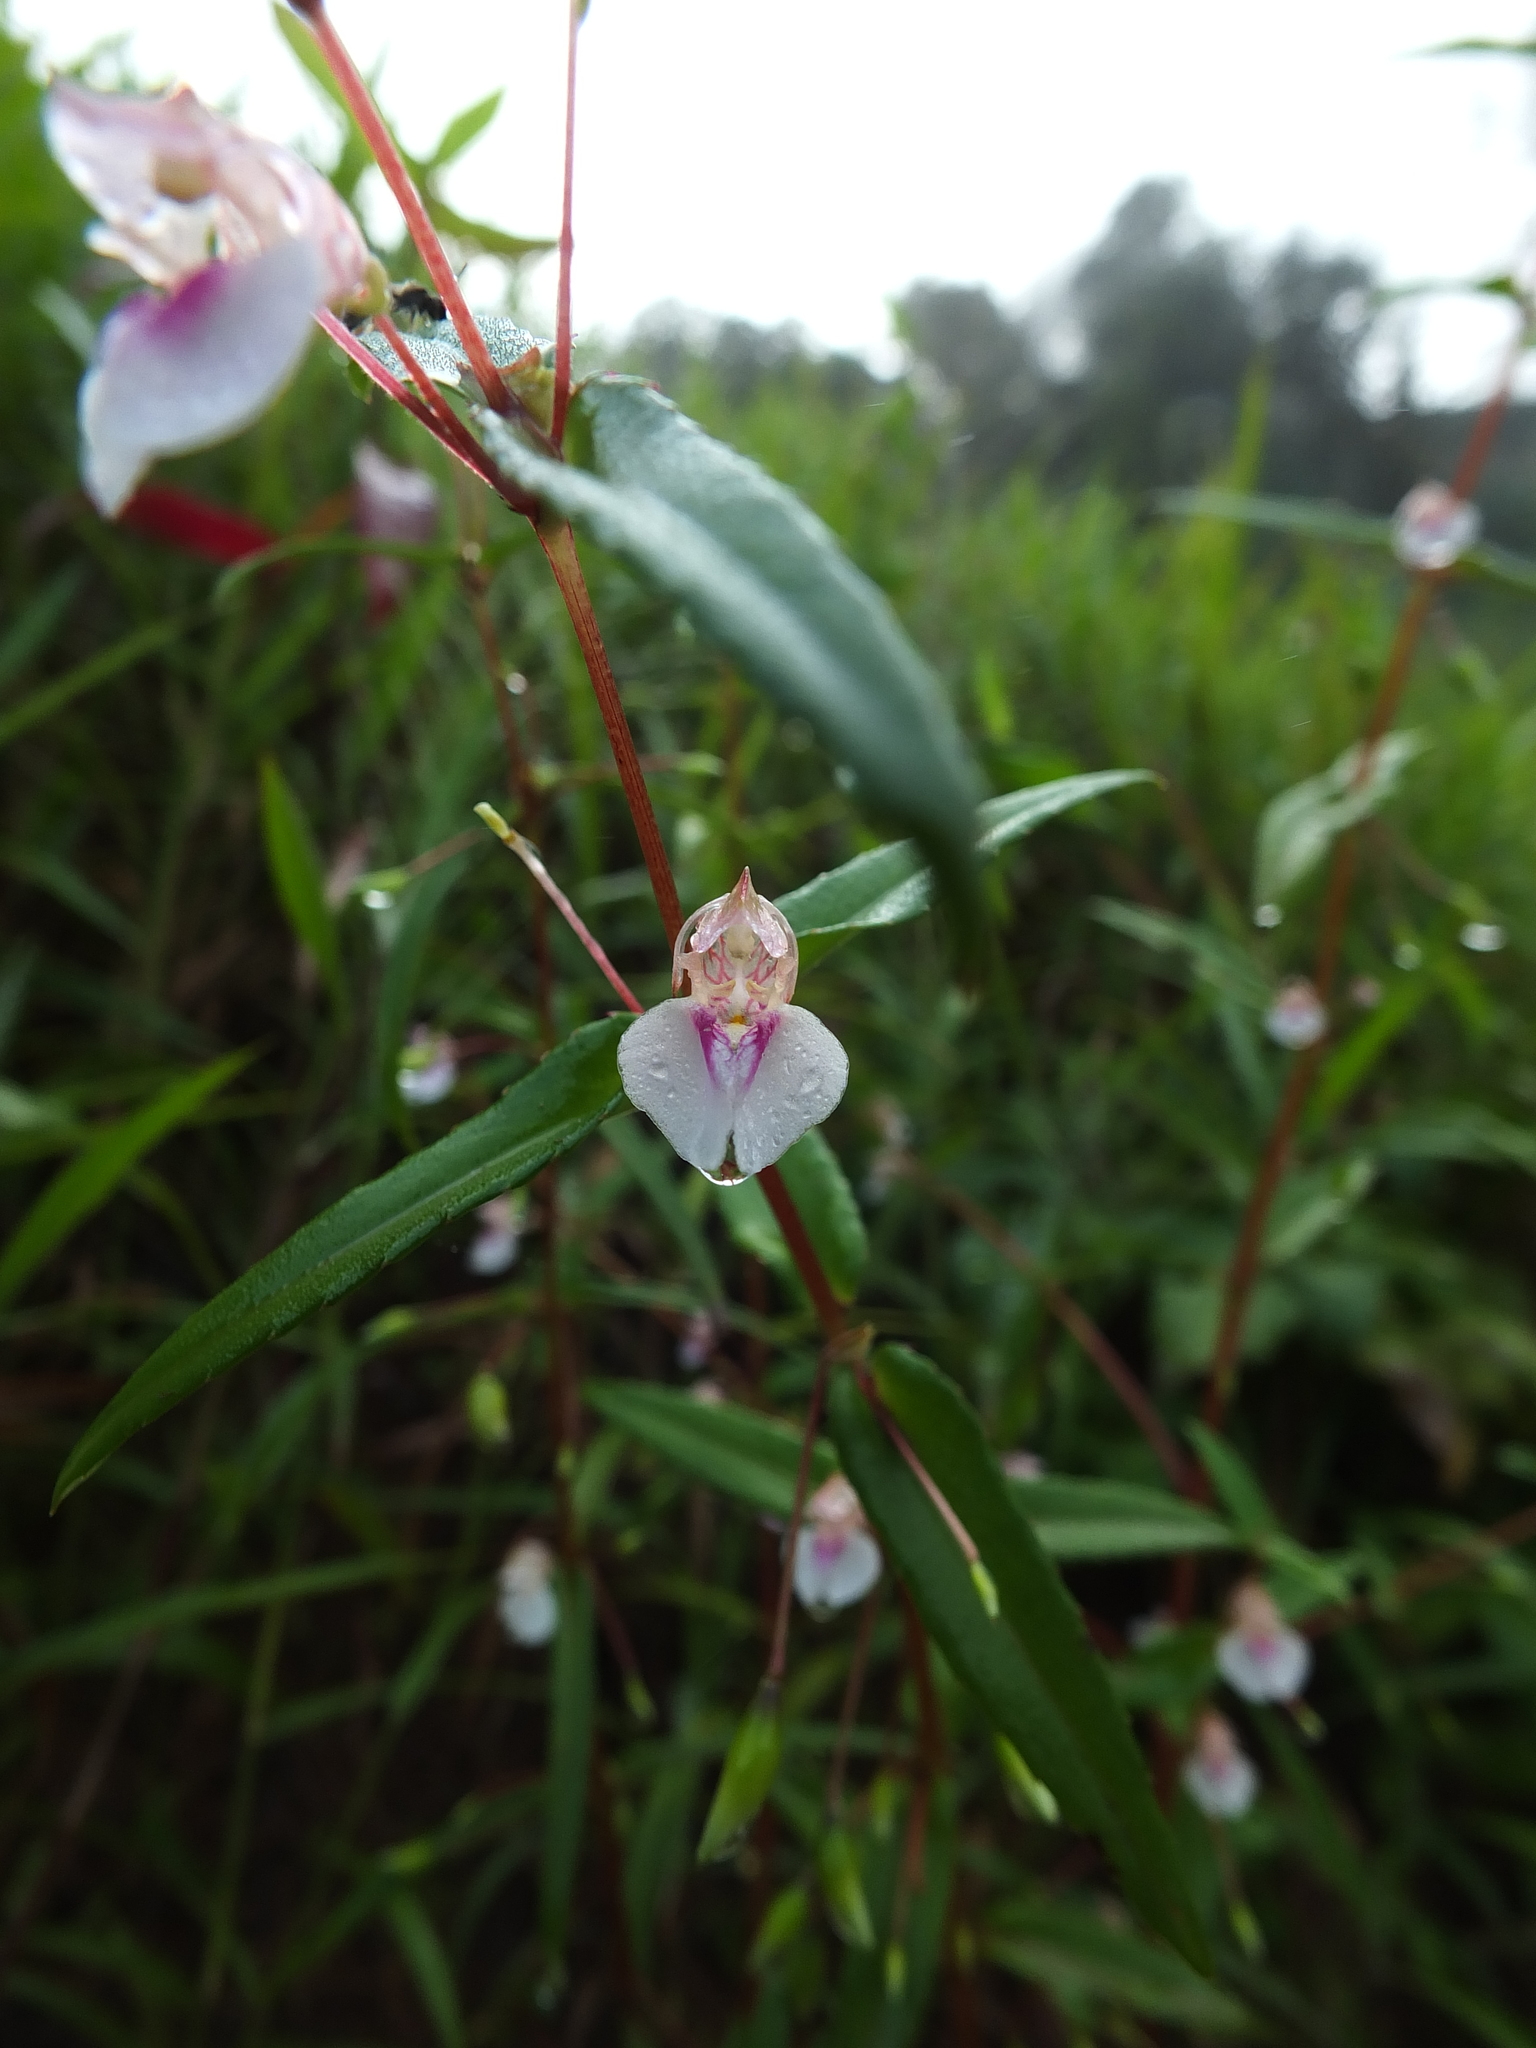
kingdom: Plantae
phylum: Tracheophyta
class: Magnoliopsida
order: Ericales
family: Balsaminaceae
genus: Impatiens
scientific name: Impatiens rupicola
